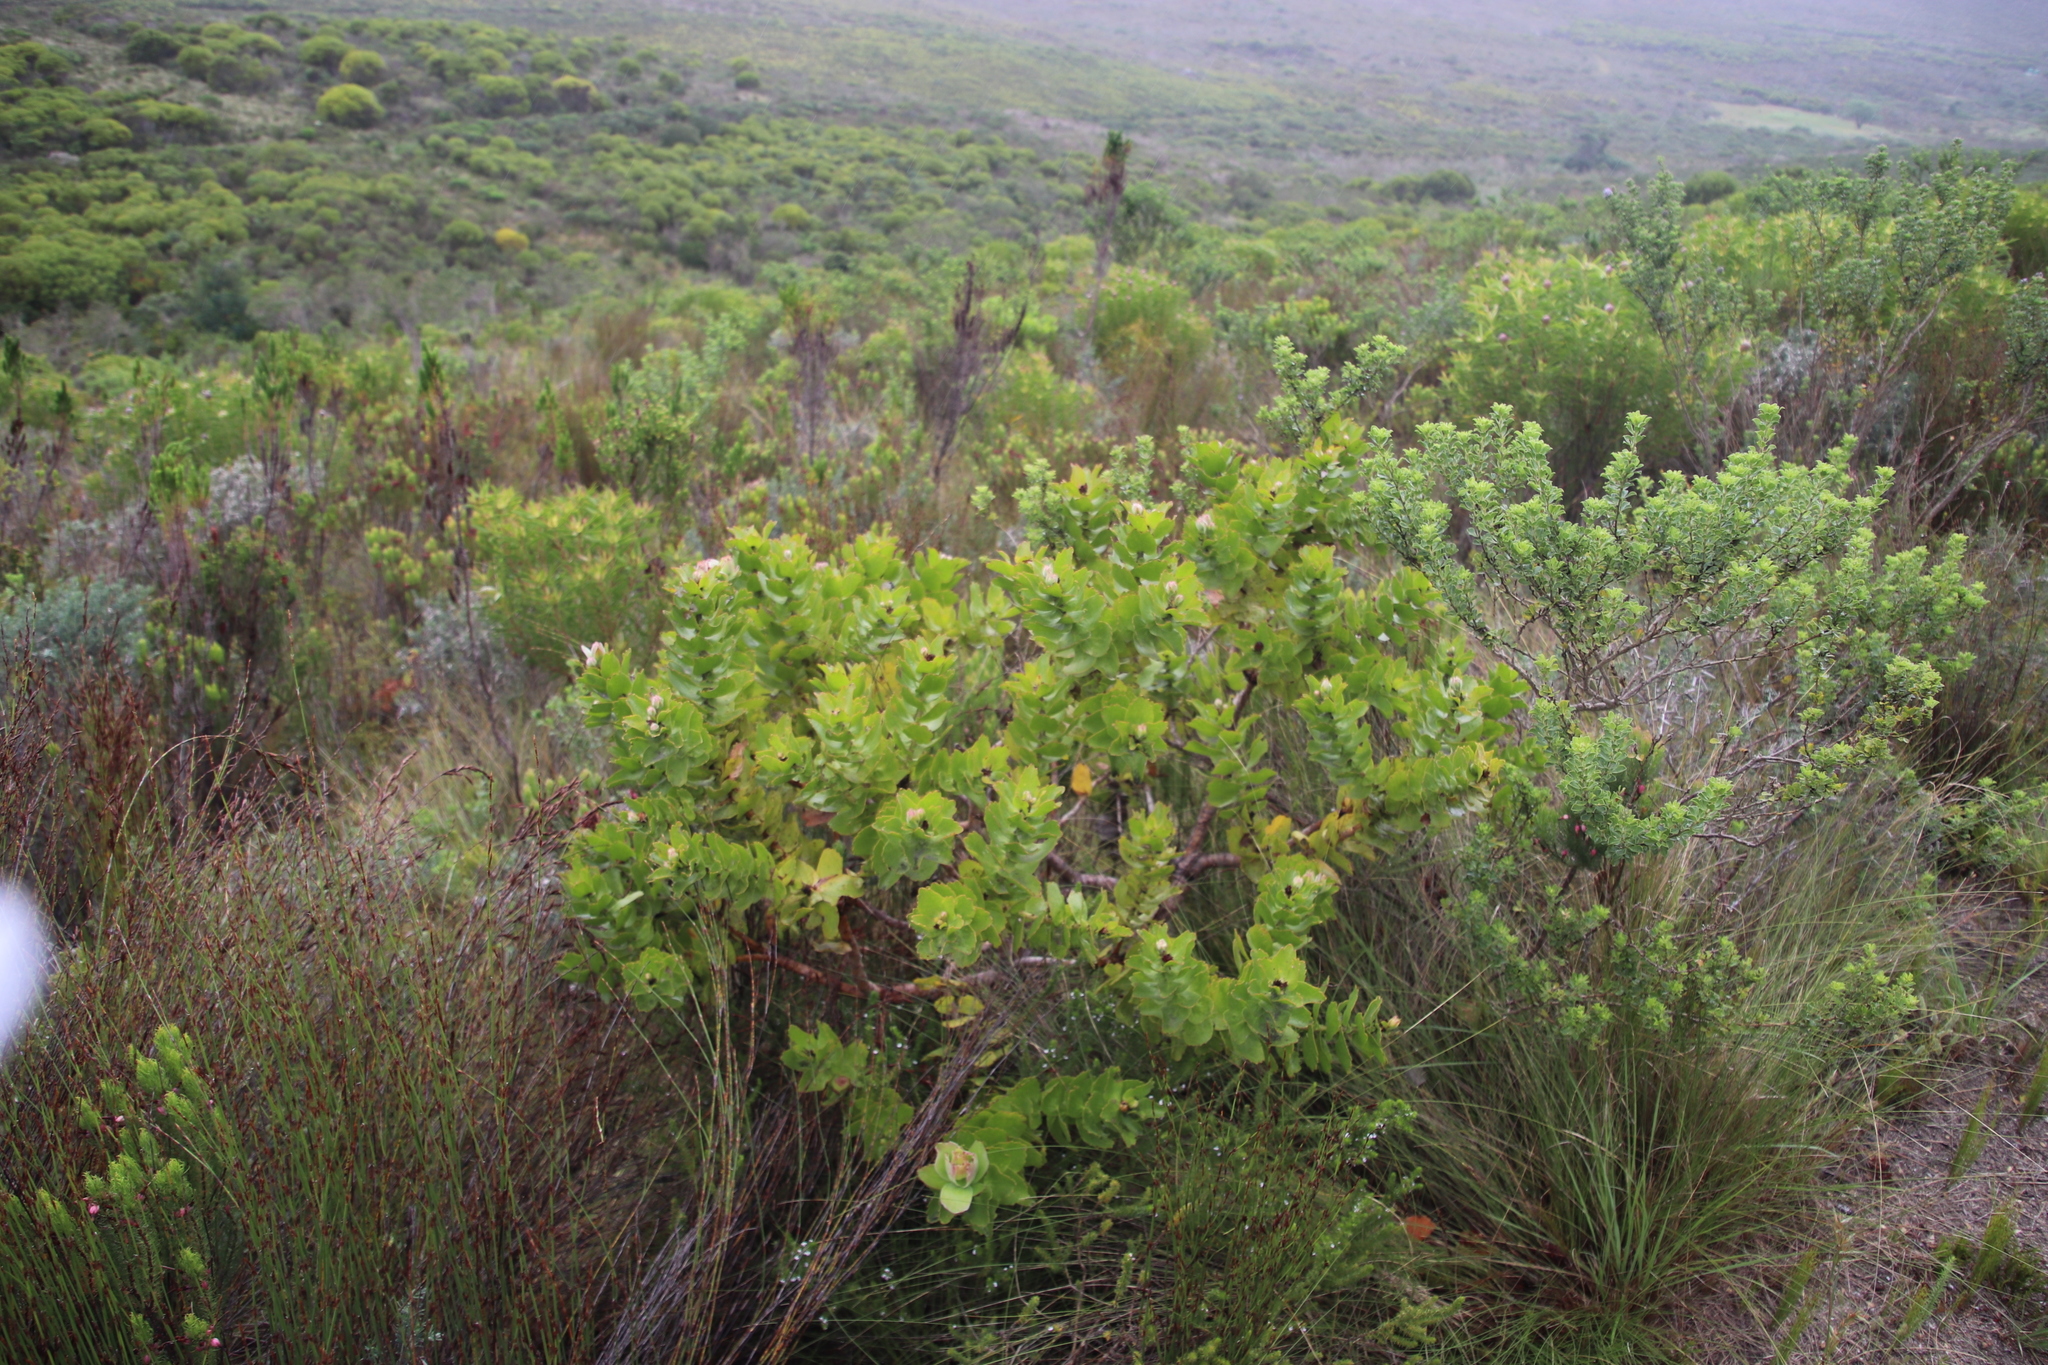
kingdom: Plantae
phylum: Tracheophyta
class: Magnoliopsida
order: Proteales
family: Proteaceae
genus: Leucospermum
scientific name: Leucospermum patersonii
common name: False tree pincushion
